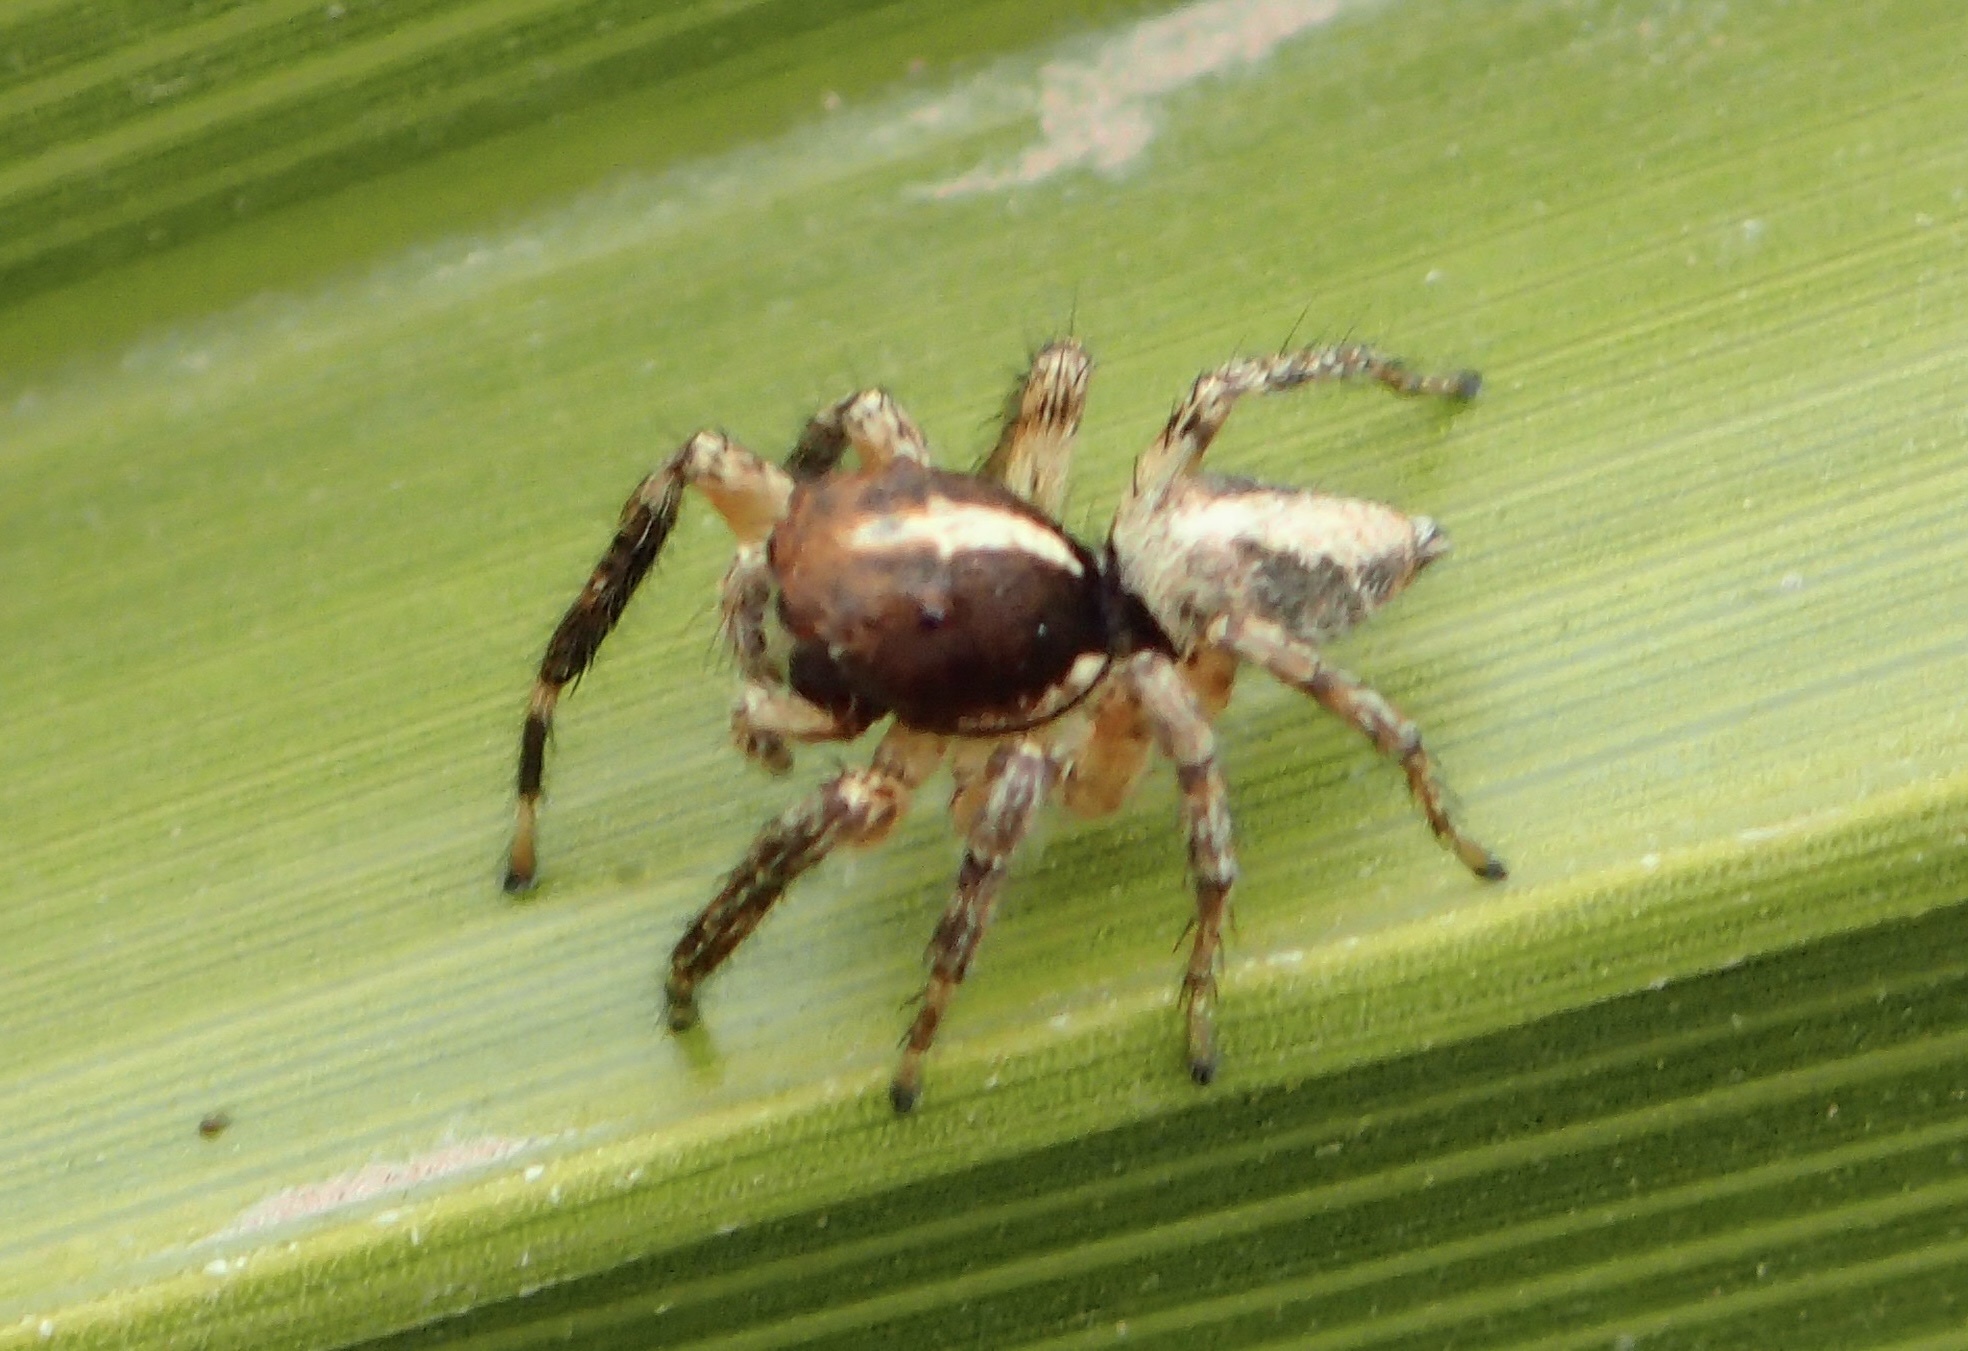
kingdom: Animalia
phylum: Arthropoda
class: Arachnida
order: Araneae
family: Salticidae
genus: Frigga
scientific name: Frigga crocuta
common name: Jumping spiders
